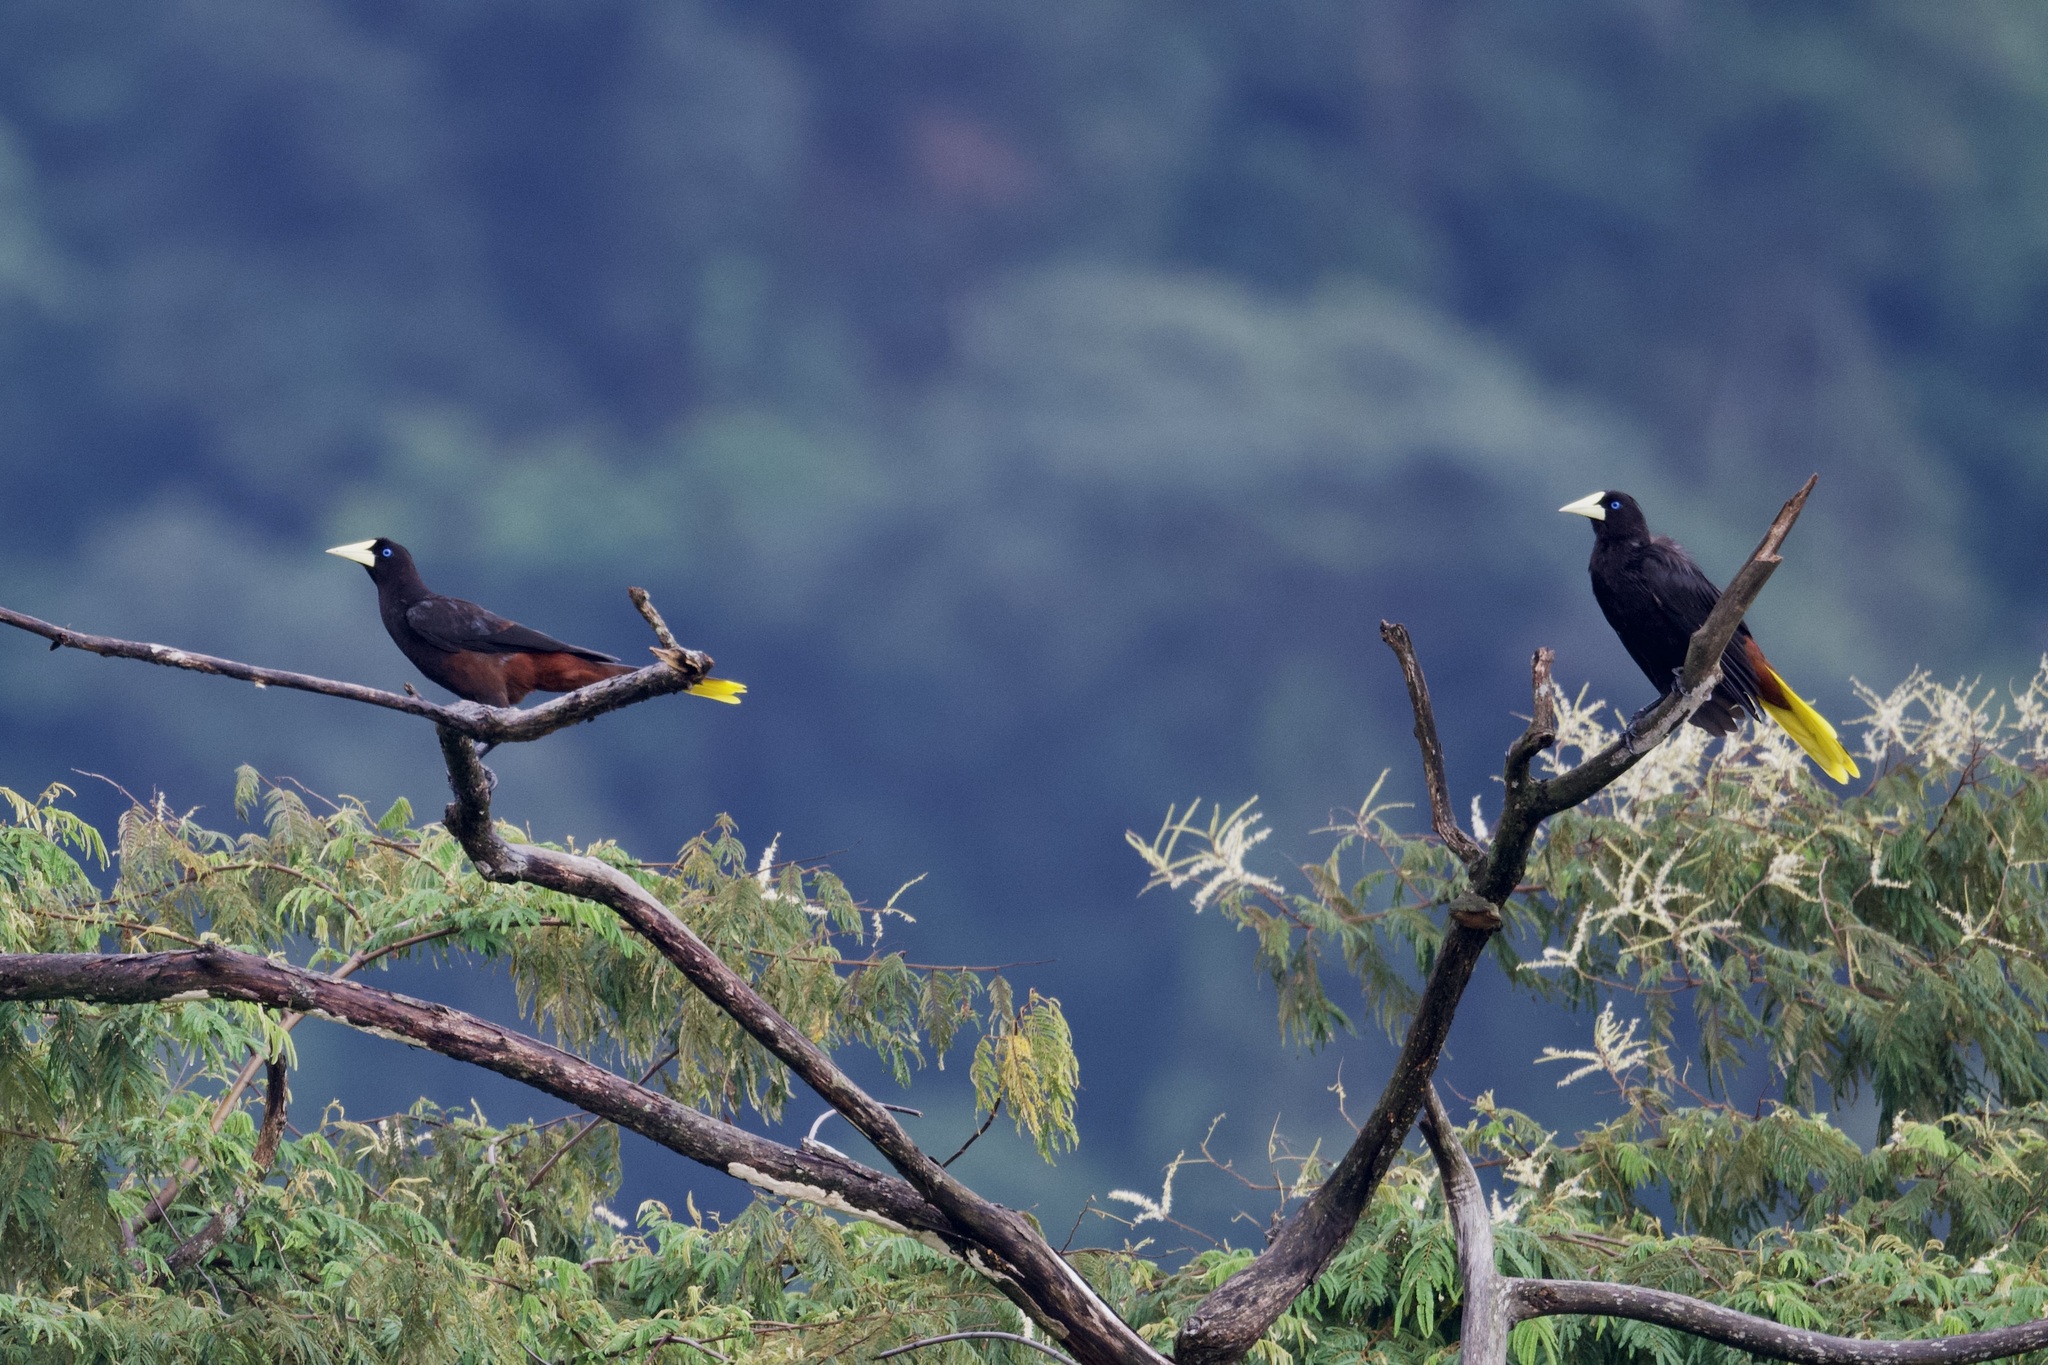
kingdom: Animalia
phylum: Chordata
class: Aves
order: Passeriformes
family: Icteridae
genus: Psarocolius
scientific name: Psarocolius decumanus
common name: Crested oropendola
